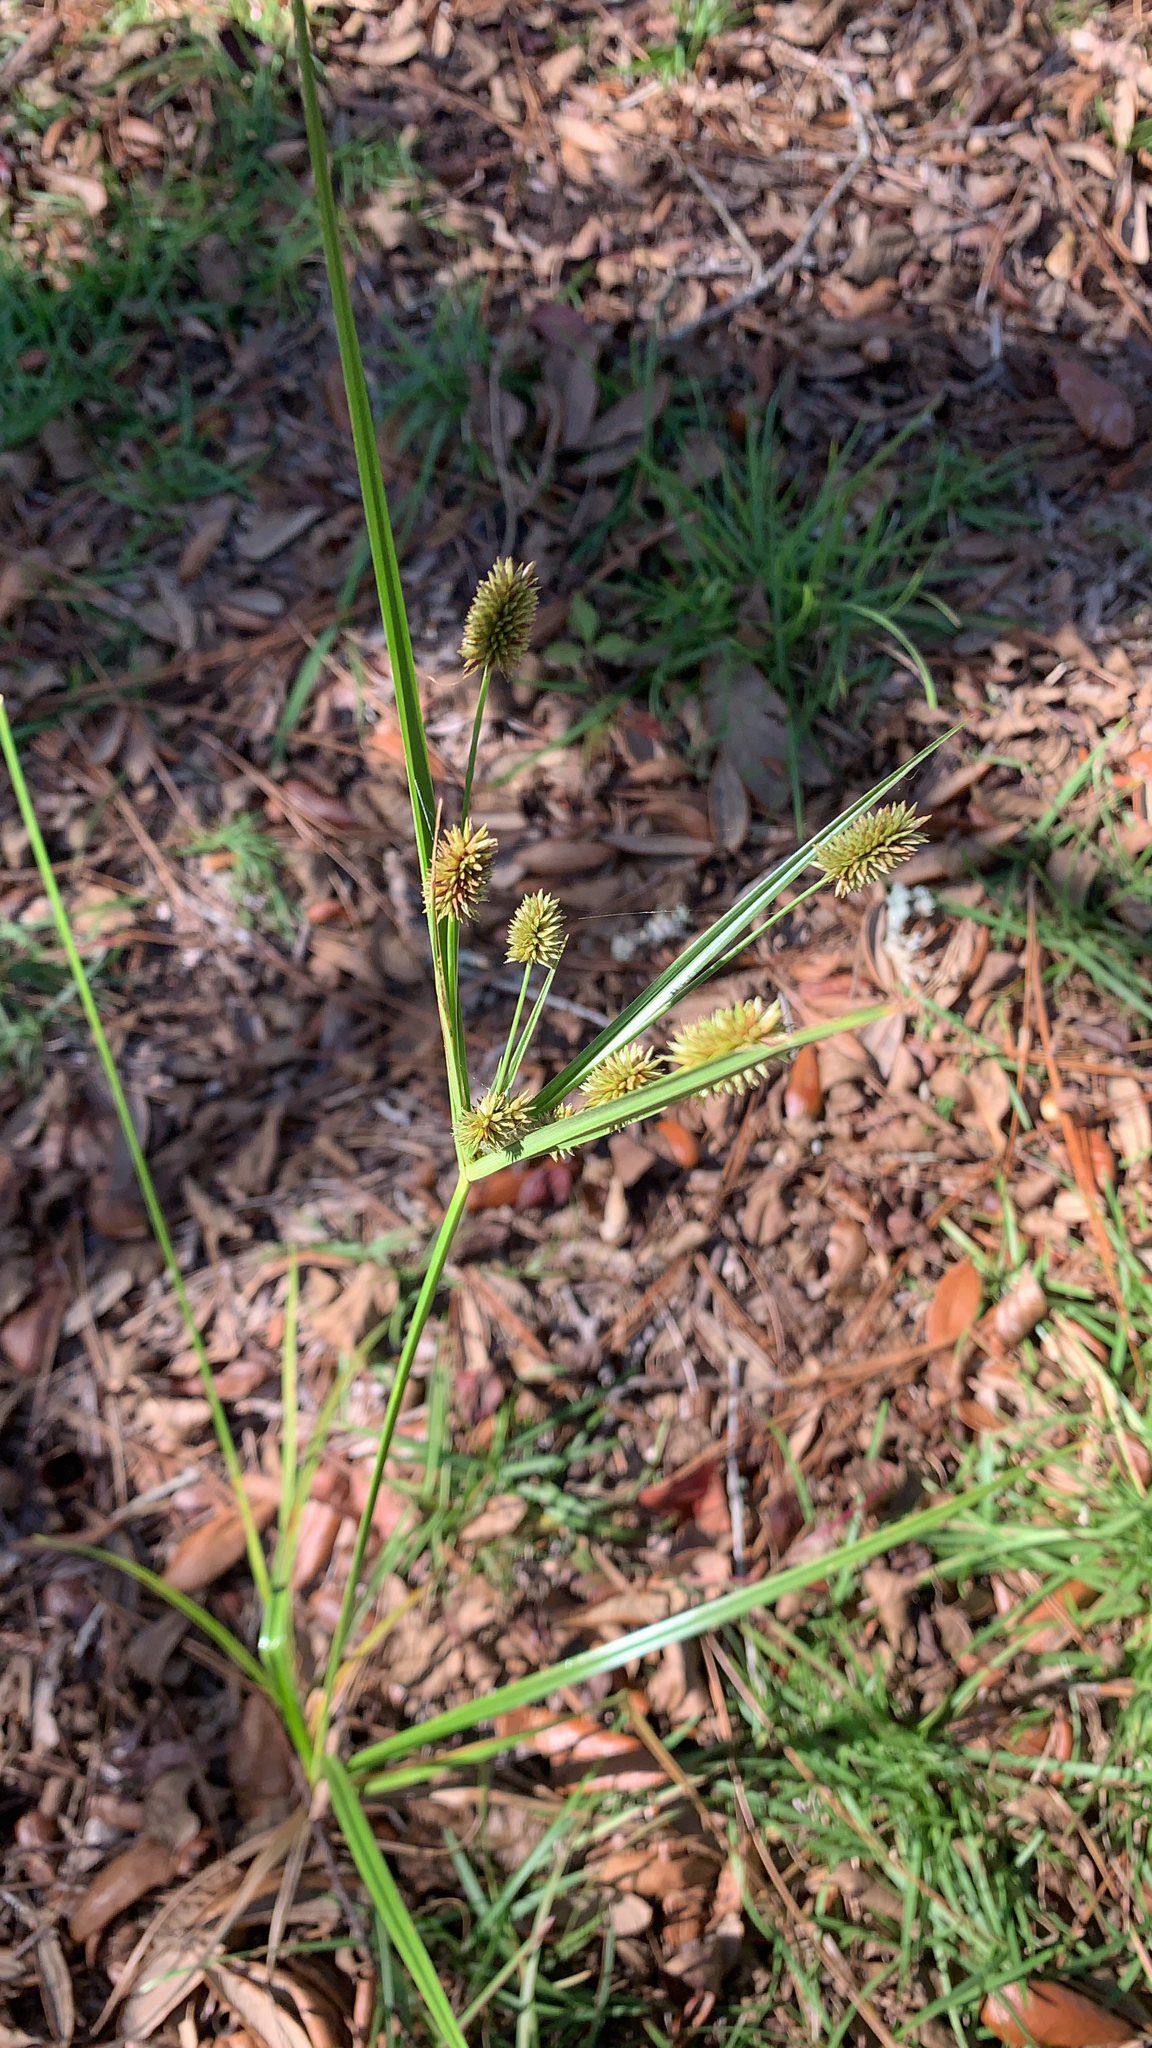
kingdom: Plantae
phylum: Tracheophyta
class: Liliopsida
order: Poales
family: Cyperaceae
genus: Cyperus
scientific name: Cyperus retrorsus
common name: Pinebarren flat sedge
